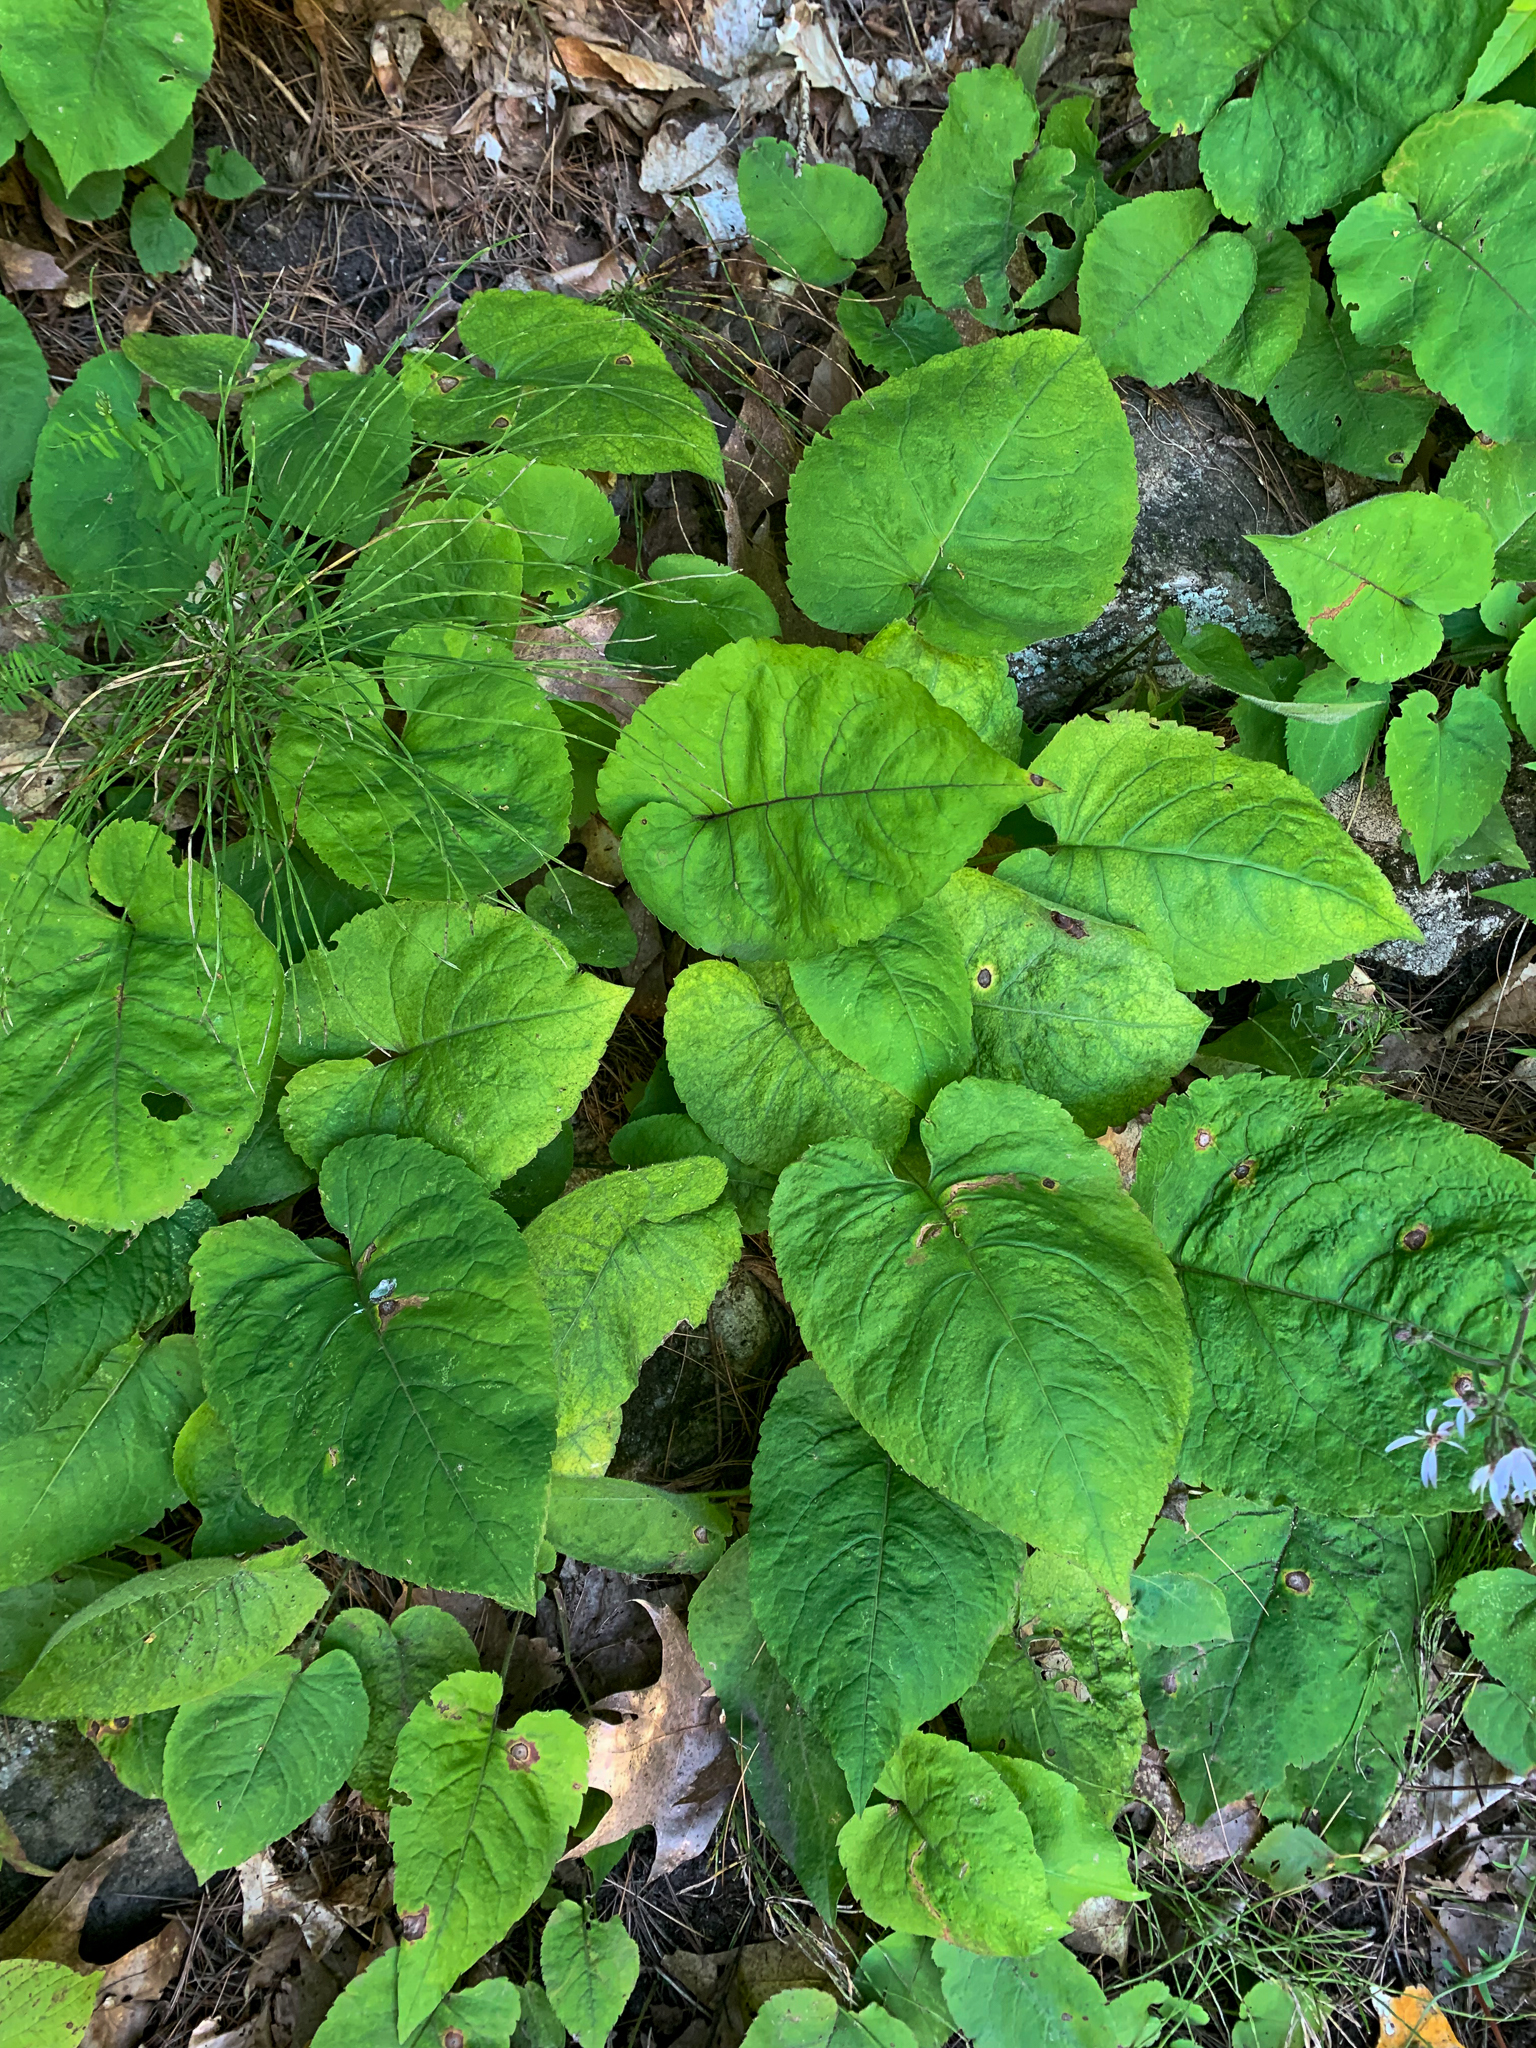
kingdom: Plantae
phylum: Tracheophyta
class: Magnoliopsida
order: Asterales
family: Asteraceae
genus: Eurybia
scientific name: Eurybia macrophylla
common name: Big-leaved aster
